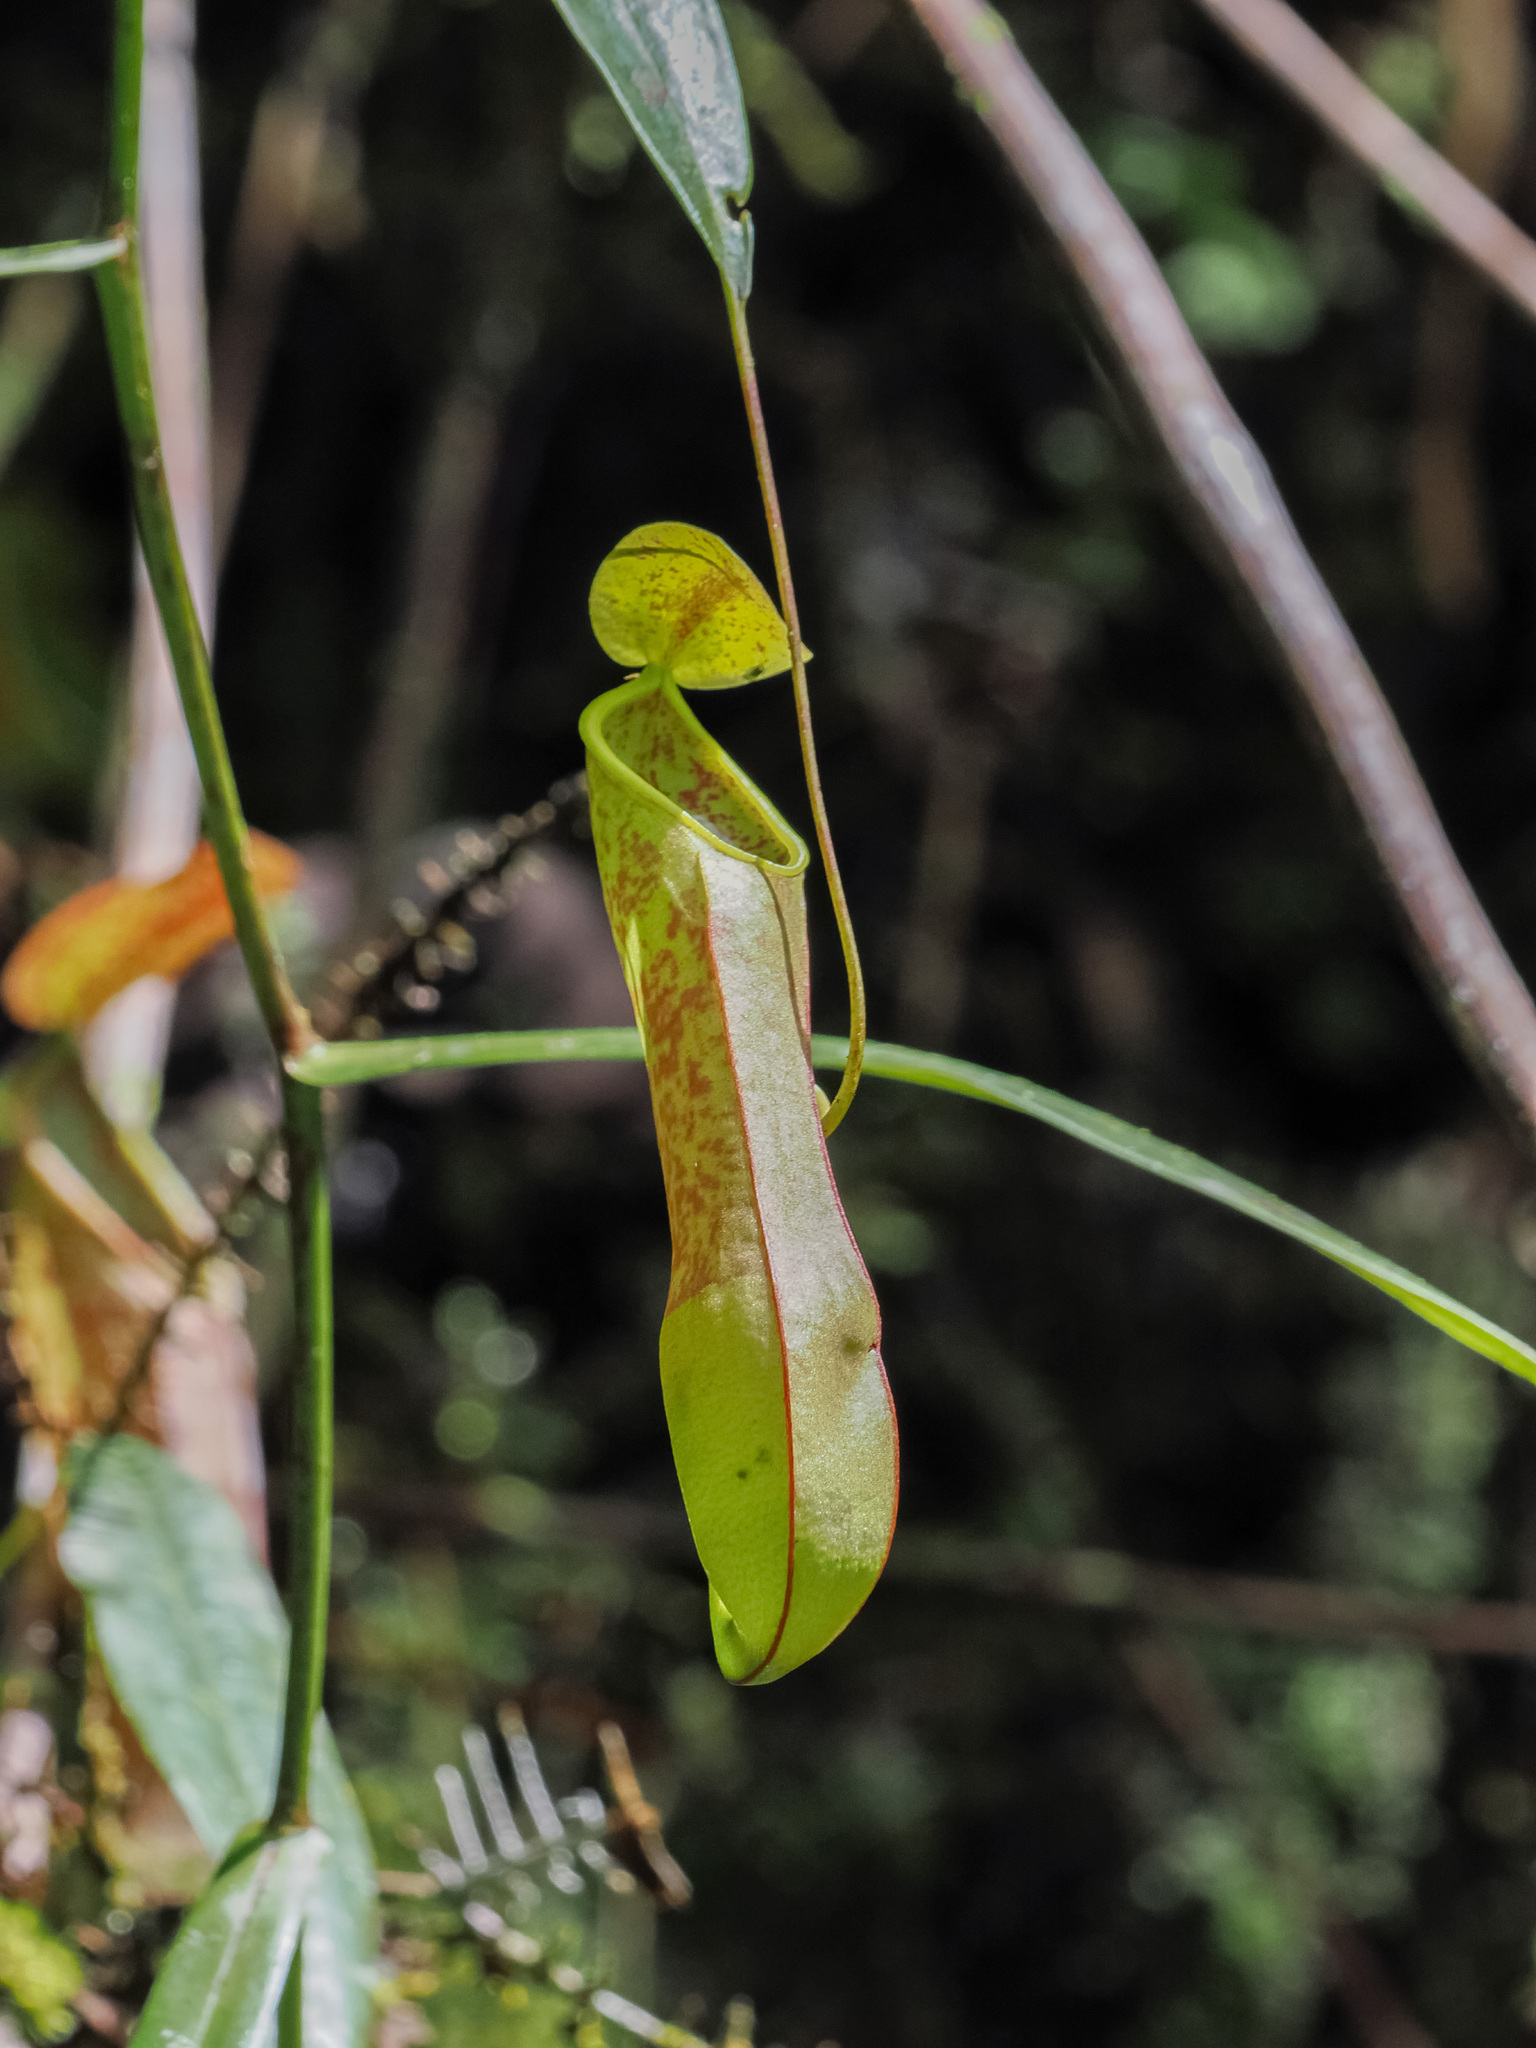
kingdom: Plantae
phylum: Tracheophyta
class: Magnoliopsida
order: Caryophyllales
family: Nepenthaceae
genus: Nepenthes
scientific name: Nepenthes tobaica
